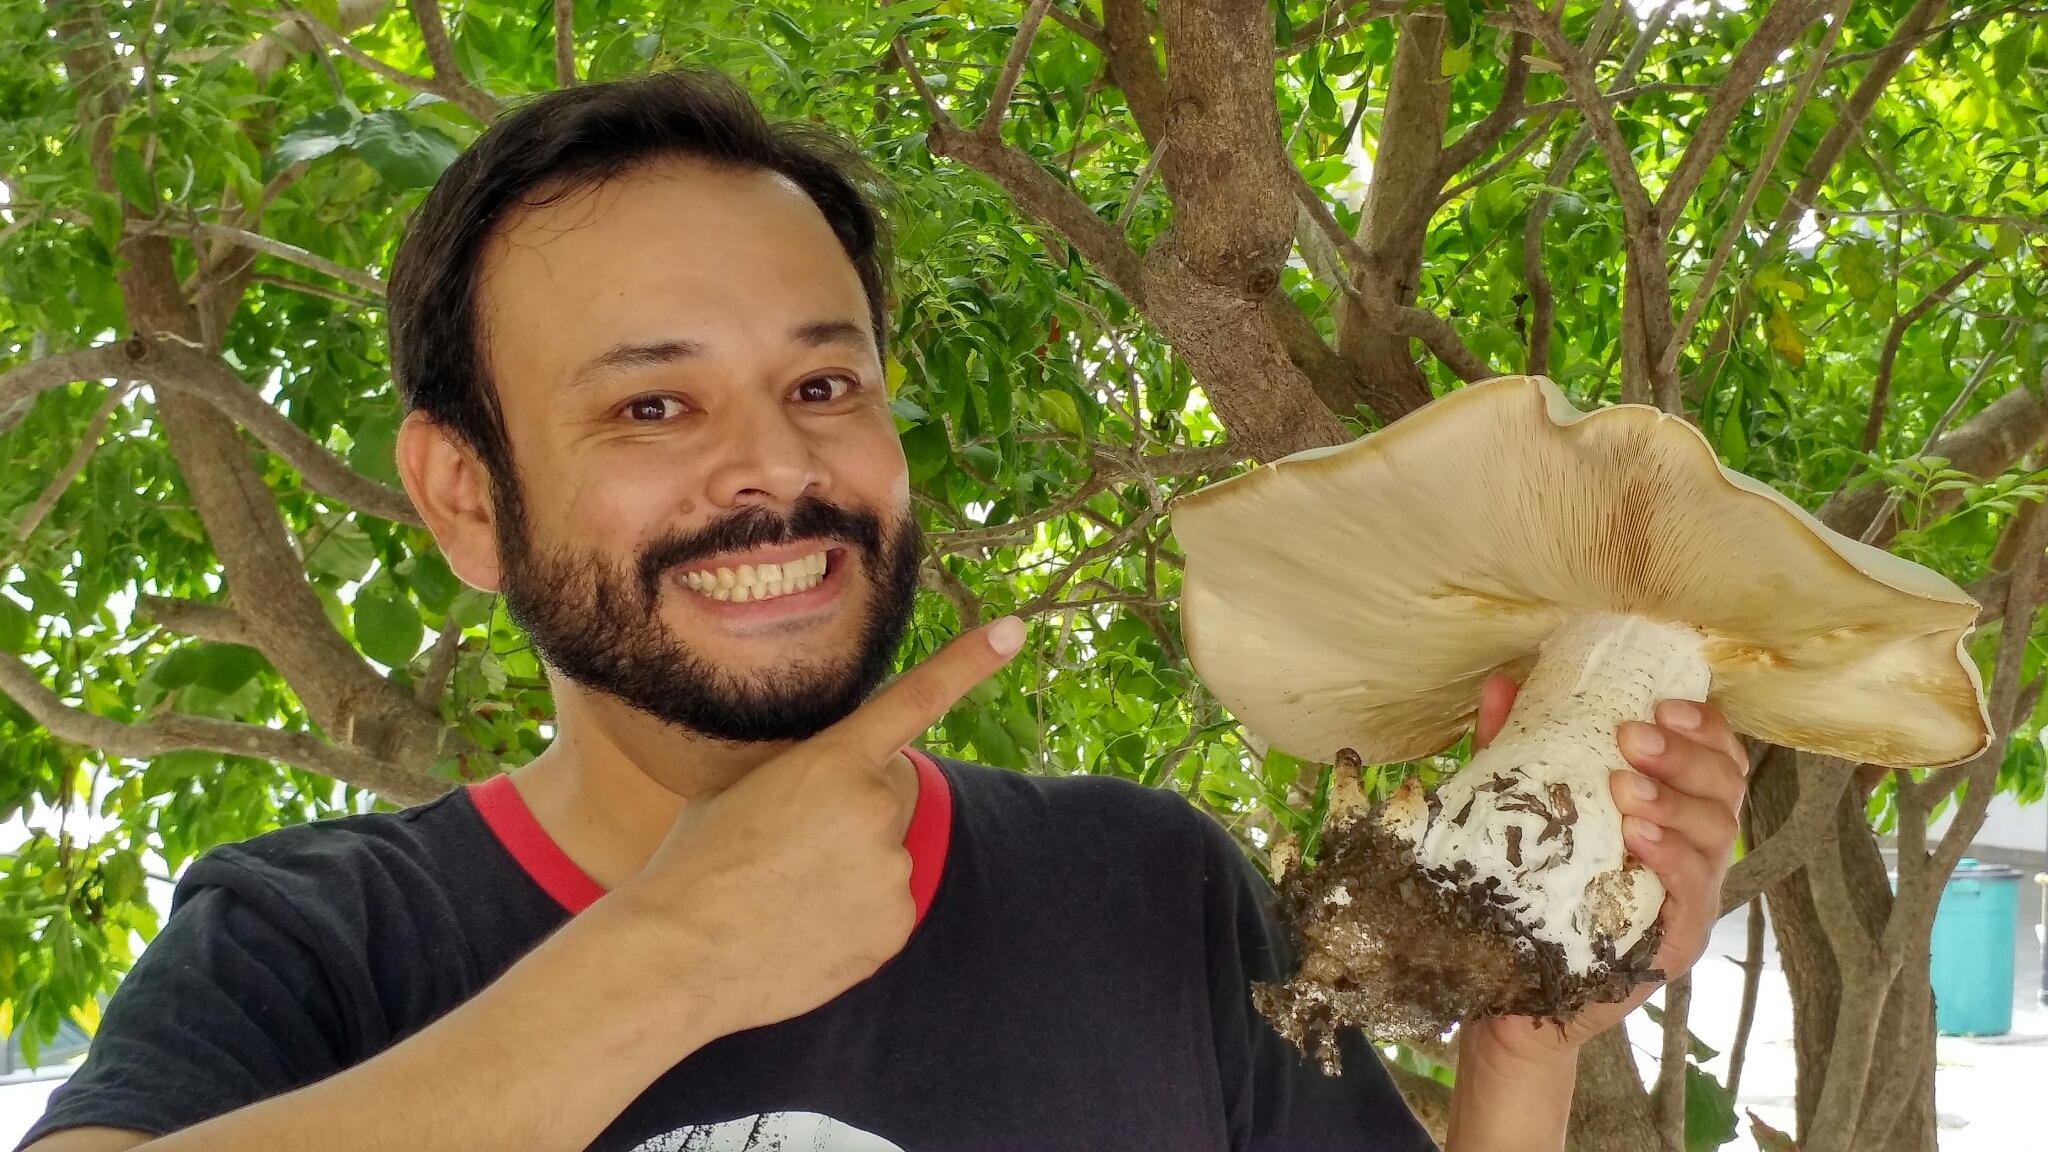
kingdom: Fungi
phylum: Basidiomycota
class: Agaricomycetes
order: Agaricales
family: Callistosporiaceae
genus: Macrocybe
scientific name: Macrocybe titans
